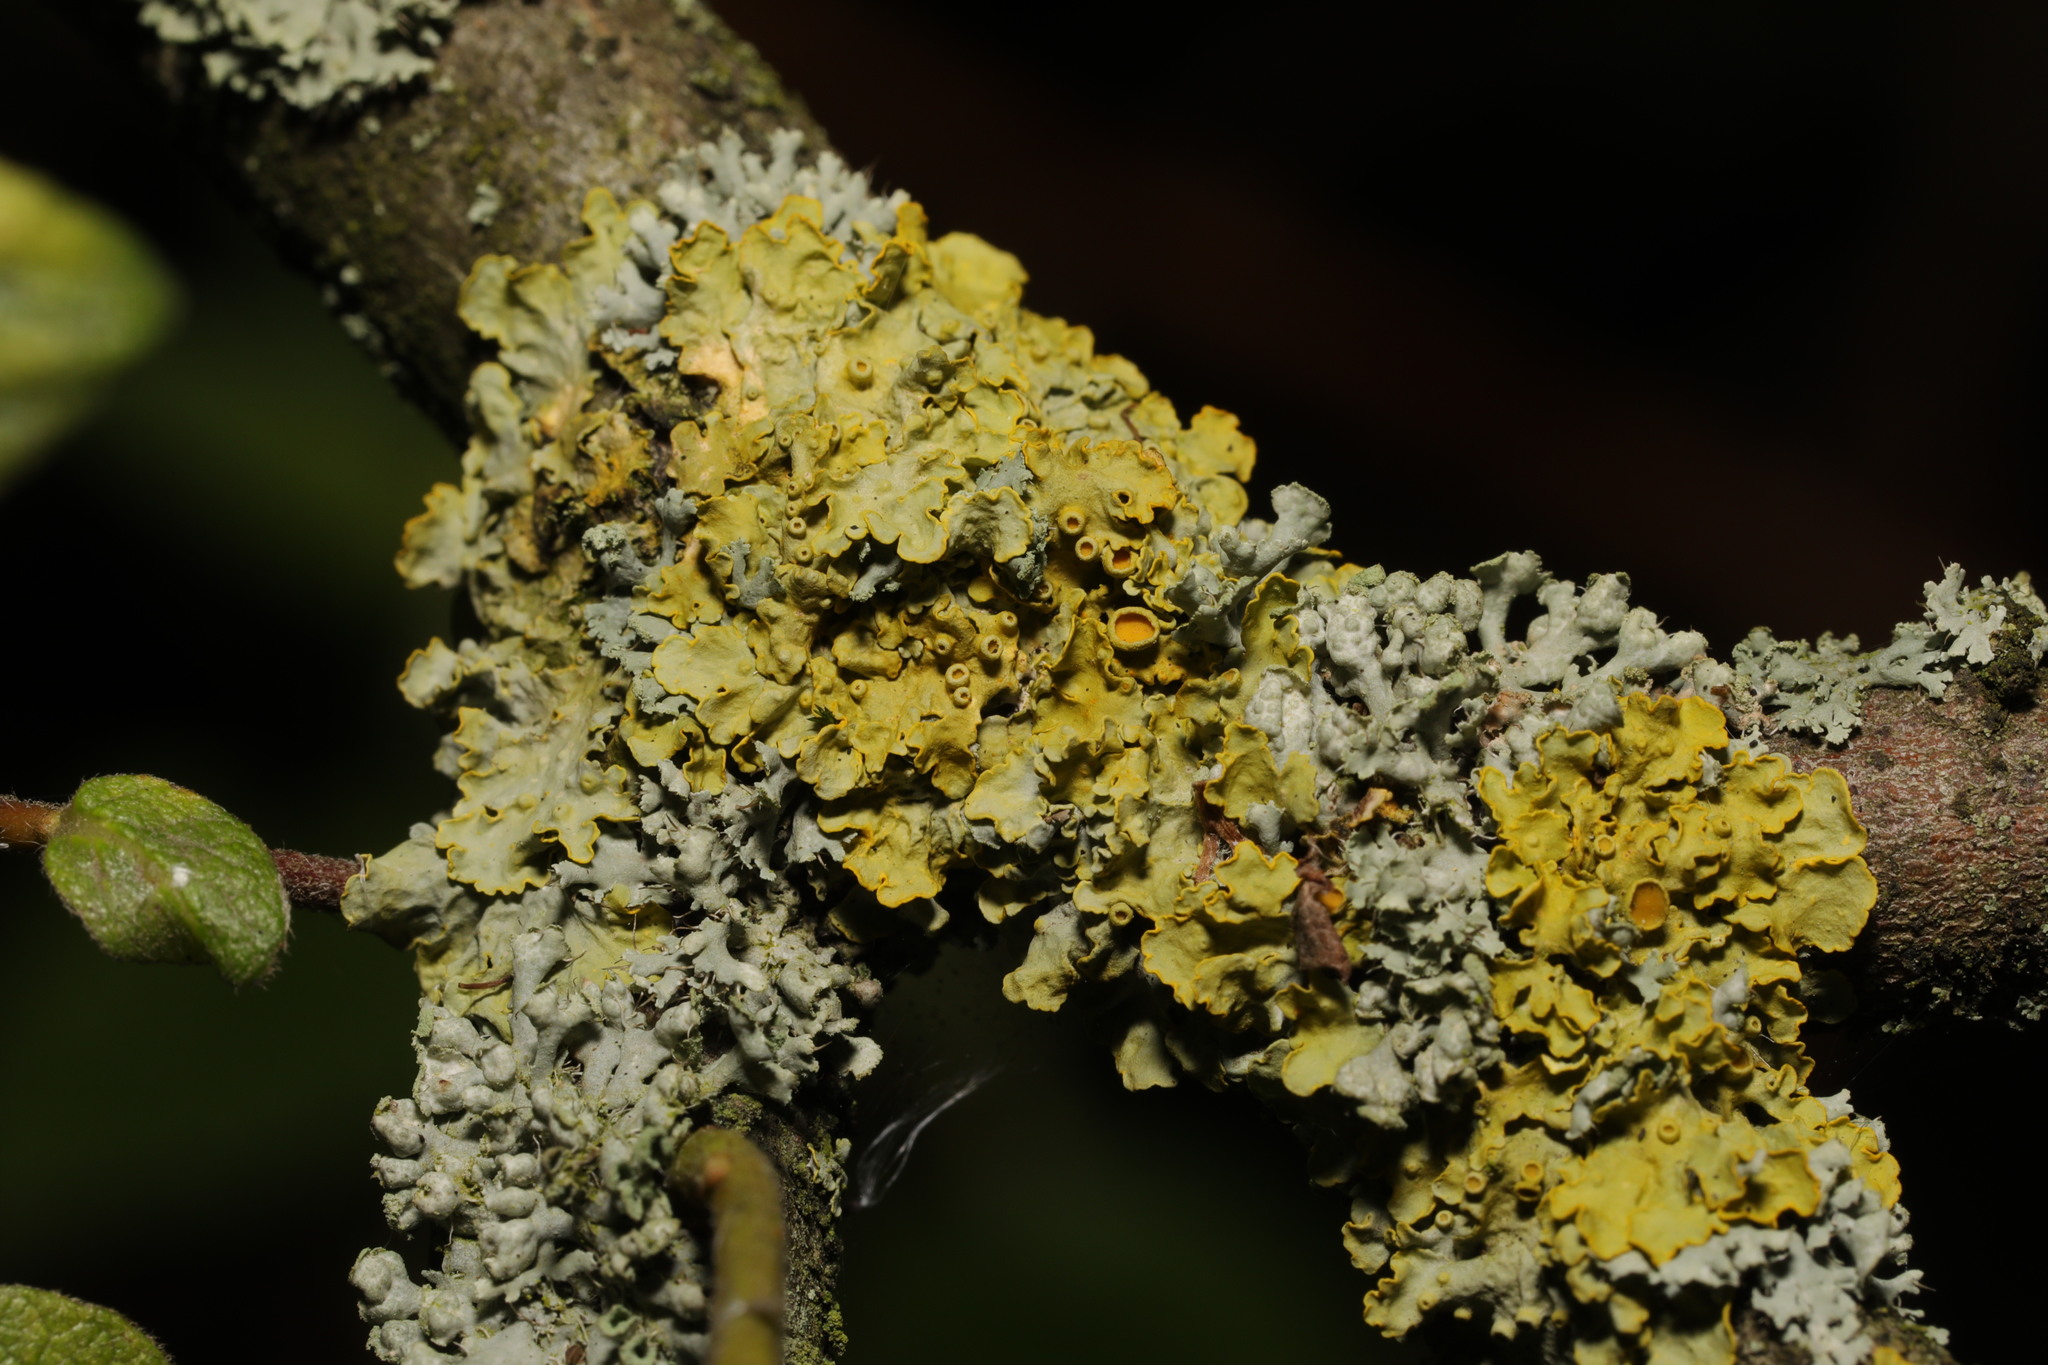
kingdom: Fungi
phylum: Ascomycota
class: Lecanoromycetes
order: Teloschistales
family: Teloschistaceae
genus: Xanthoria
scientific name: Xanthoria parietina
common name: Common orange lichen
